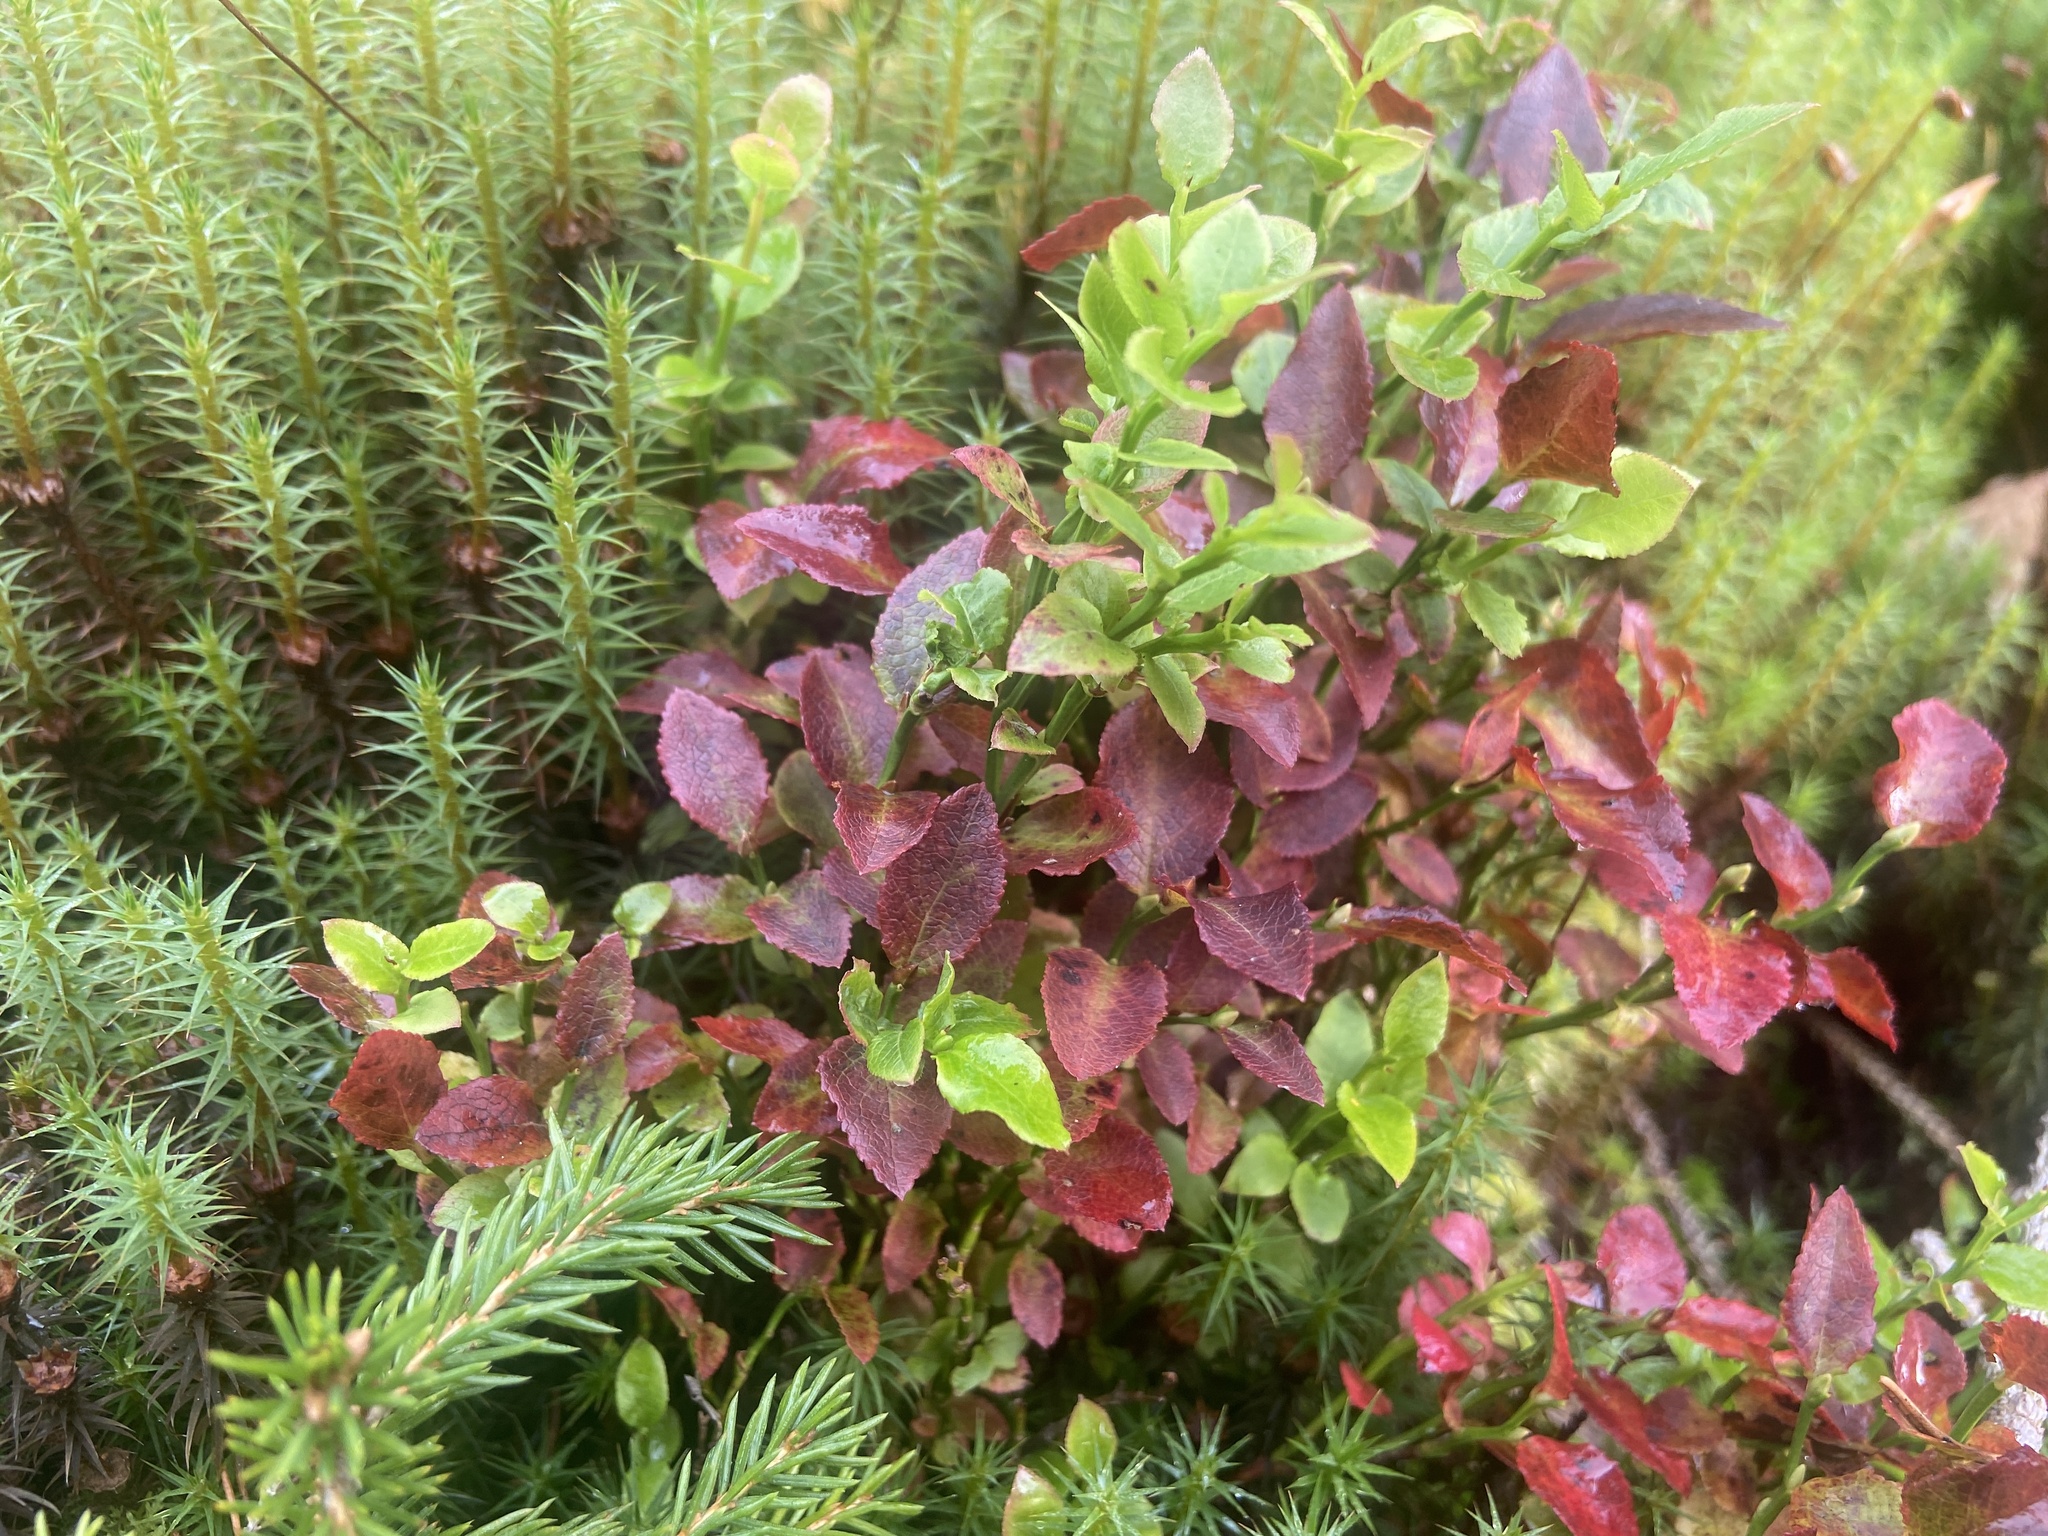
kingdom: Plantae
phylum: Tracheophyta
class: Magnoliopsida
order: Ericales
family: Ericaceae
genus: Vaccinium
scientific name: Vaccinium myrtillus
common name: Bilberry
